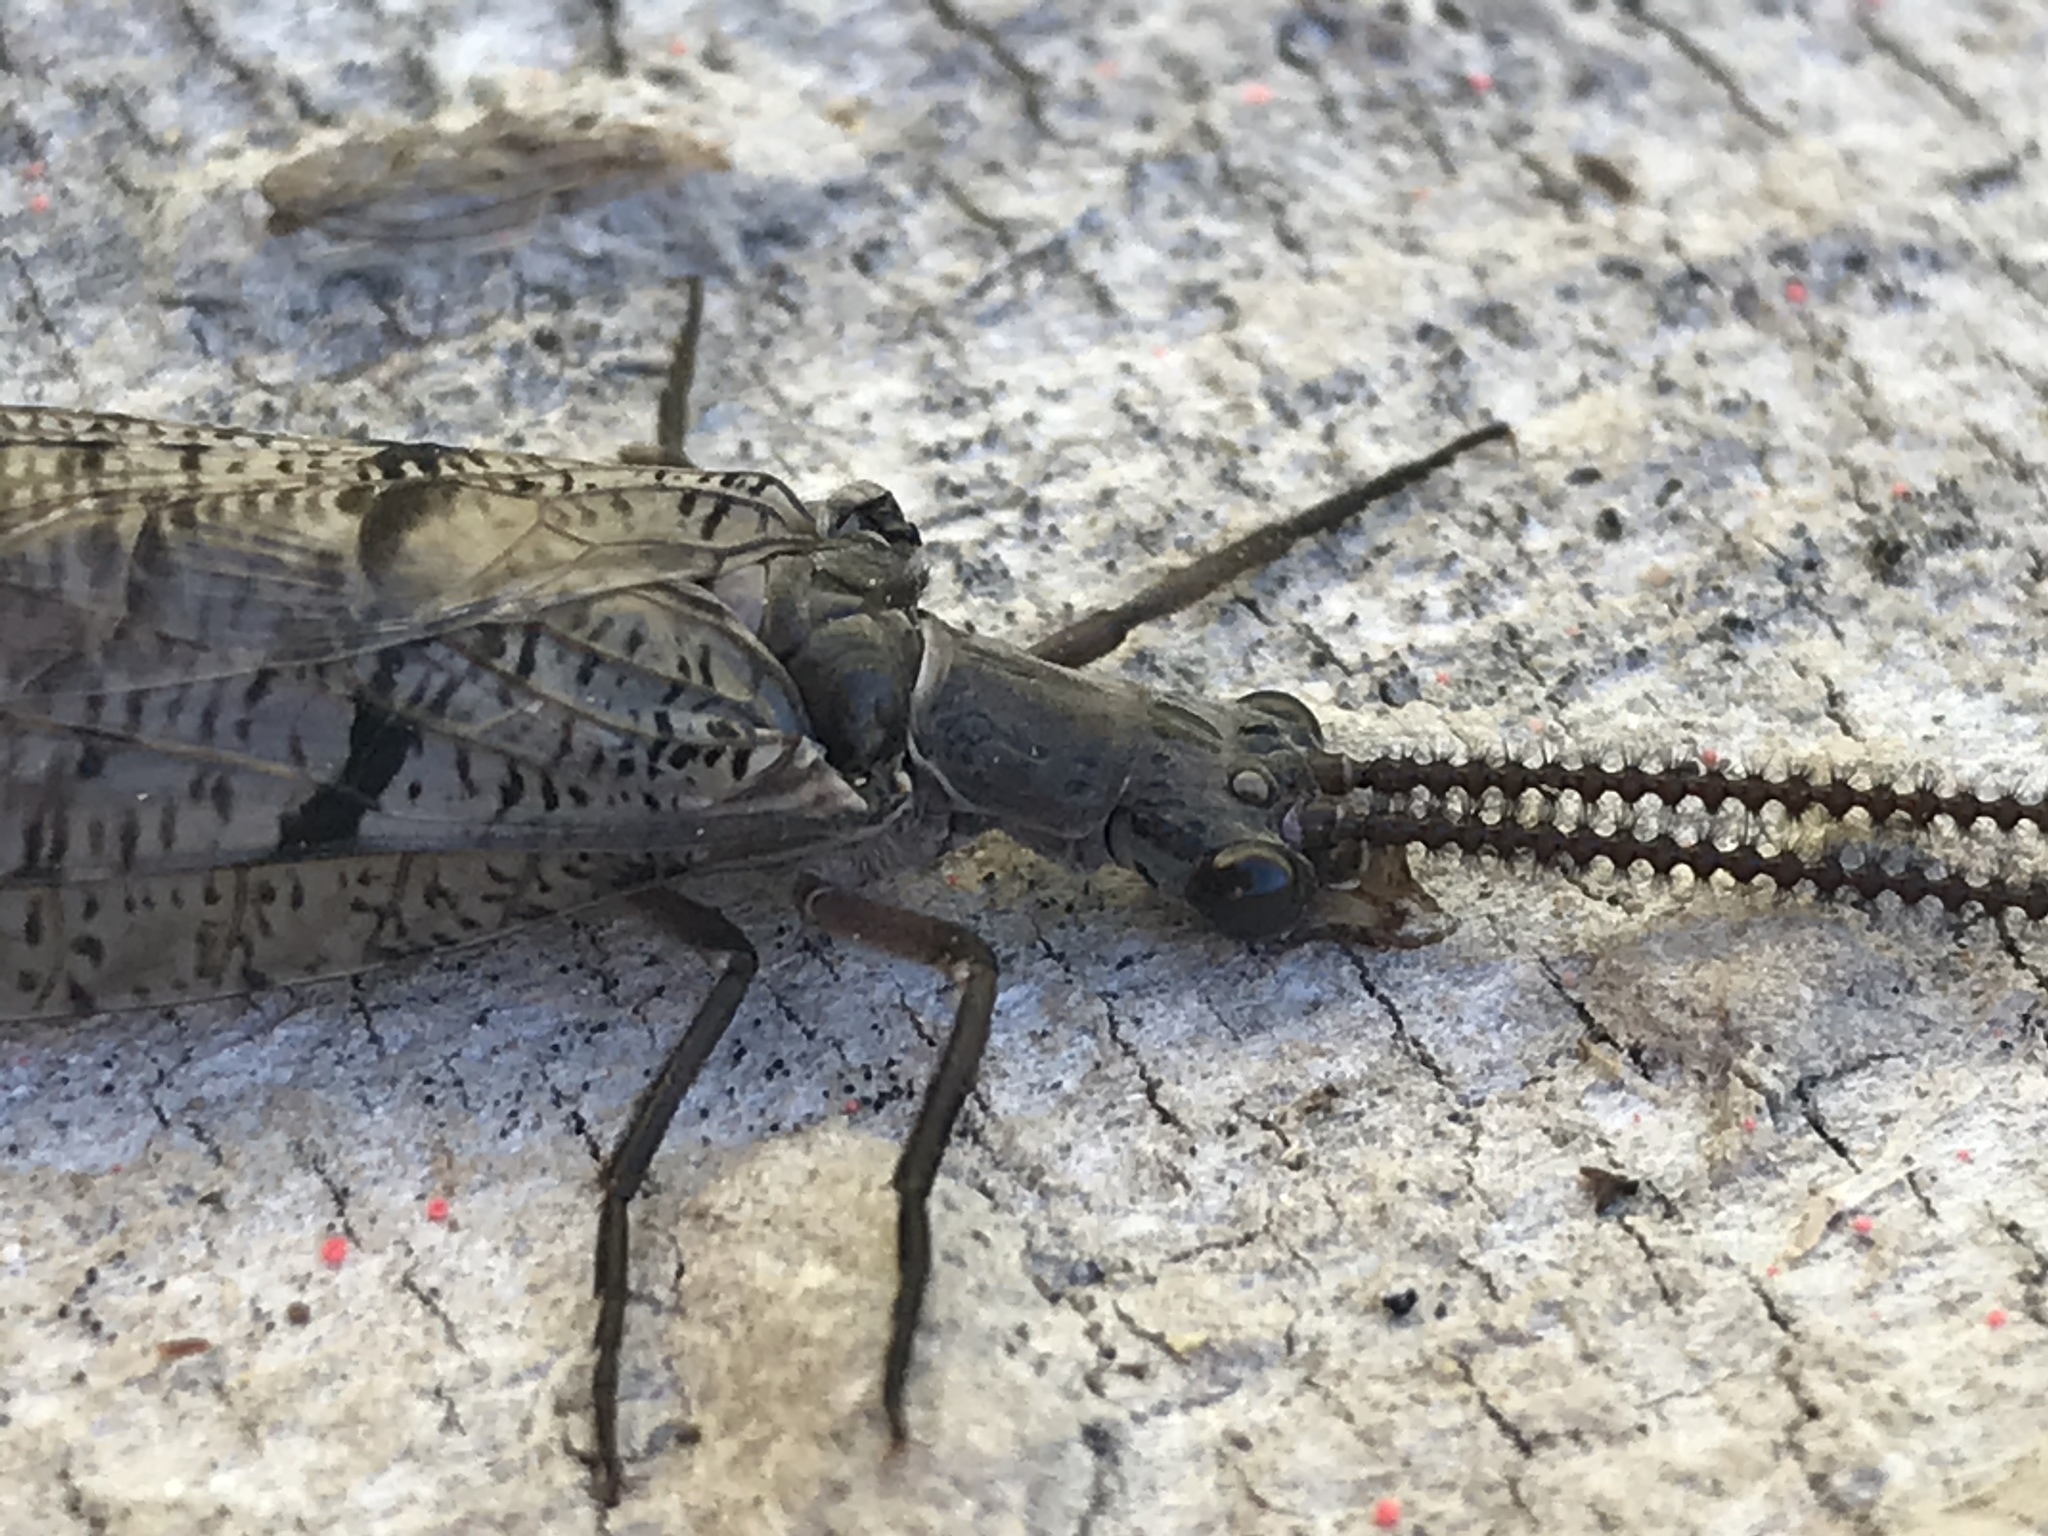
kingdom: Animalia
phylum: Arthropoda
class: Insecta
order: Megaloptera
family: Corydalidae
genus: Neohermes
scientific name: Neohermes filicornis
